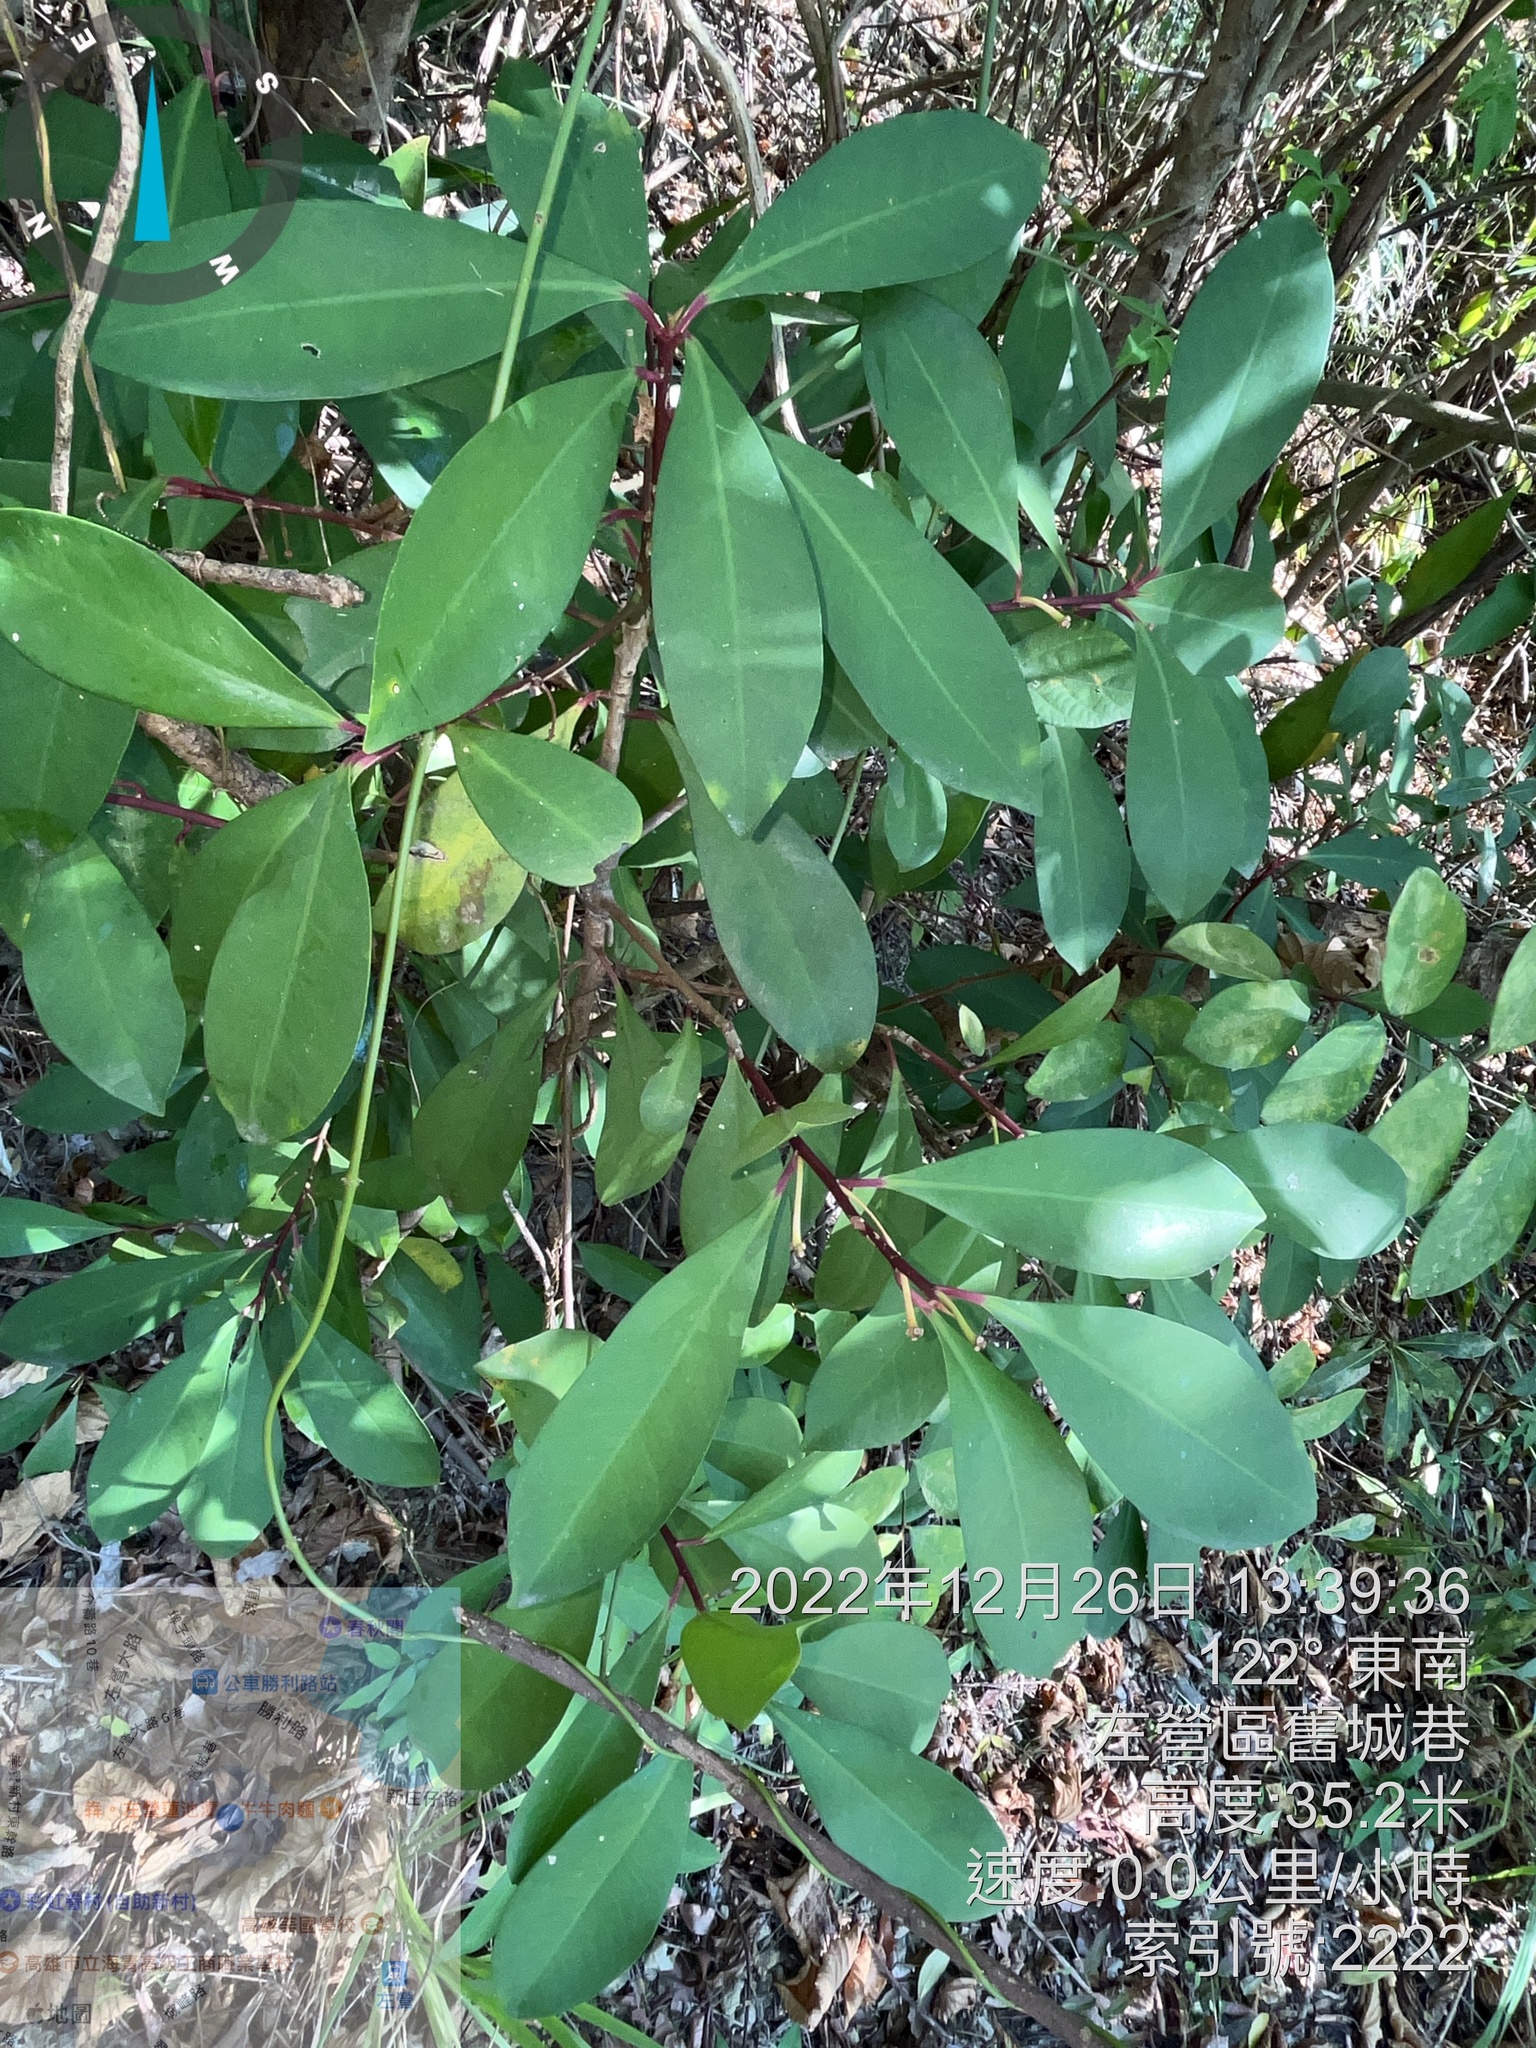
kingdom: Plantae
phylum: Tracheophyta
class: Magnoliopsida
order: Apiales
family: Pittosporaceae
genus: Pittosporum
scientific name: Pittosporum pentandrum
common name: Taiwanese cheesewood
